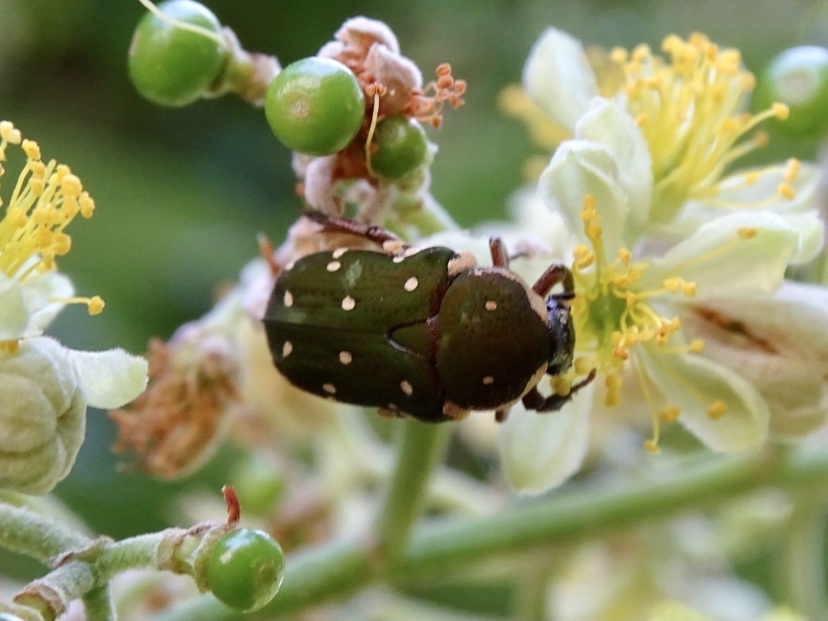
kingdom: Animalia
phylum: Arthropoda
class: Insecta
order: Coleoptera
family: Scarabaeidae
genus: Glycyphana
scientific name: Glycyphana laotica
